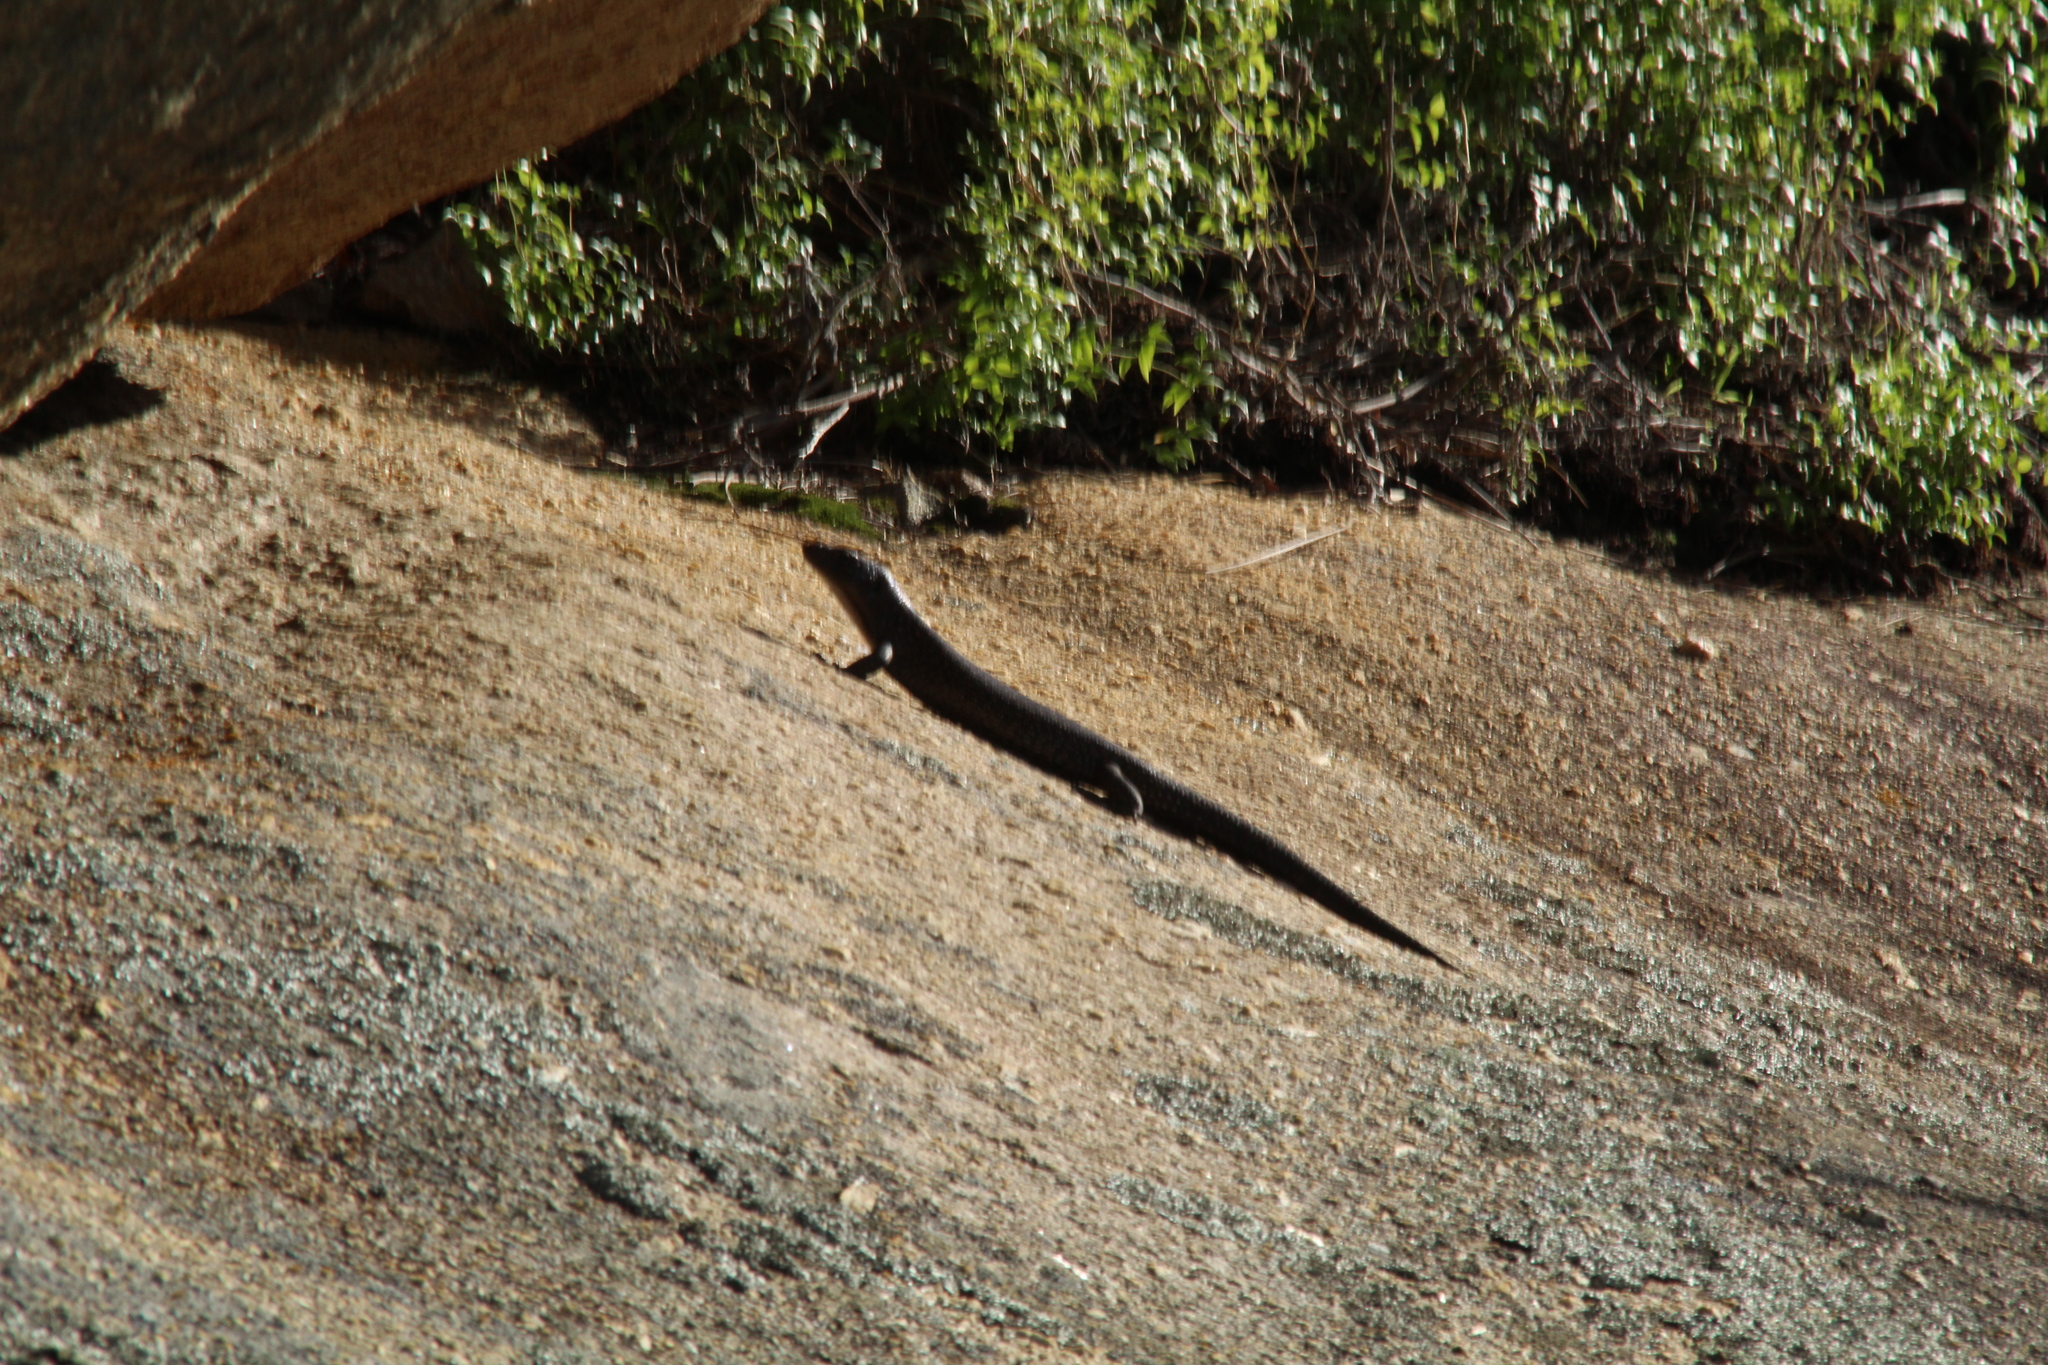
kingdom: Animalia
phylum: Chordata
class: Squamata
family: Scincidae
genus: Egernia
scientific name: Egernia kingii
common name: King's skink
